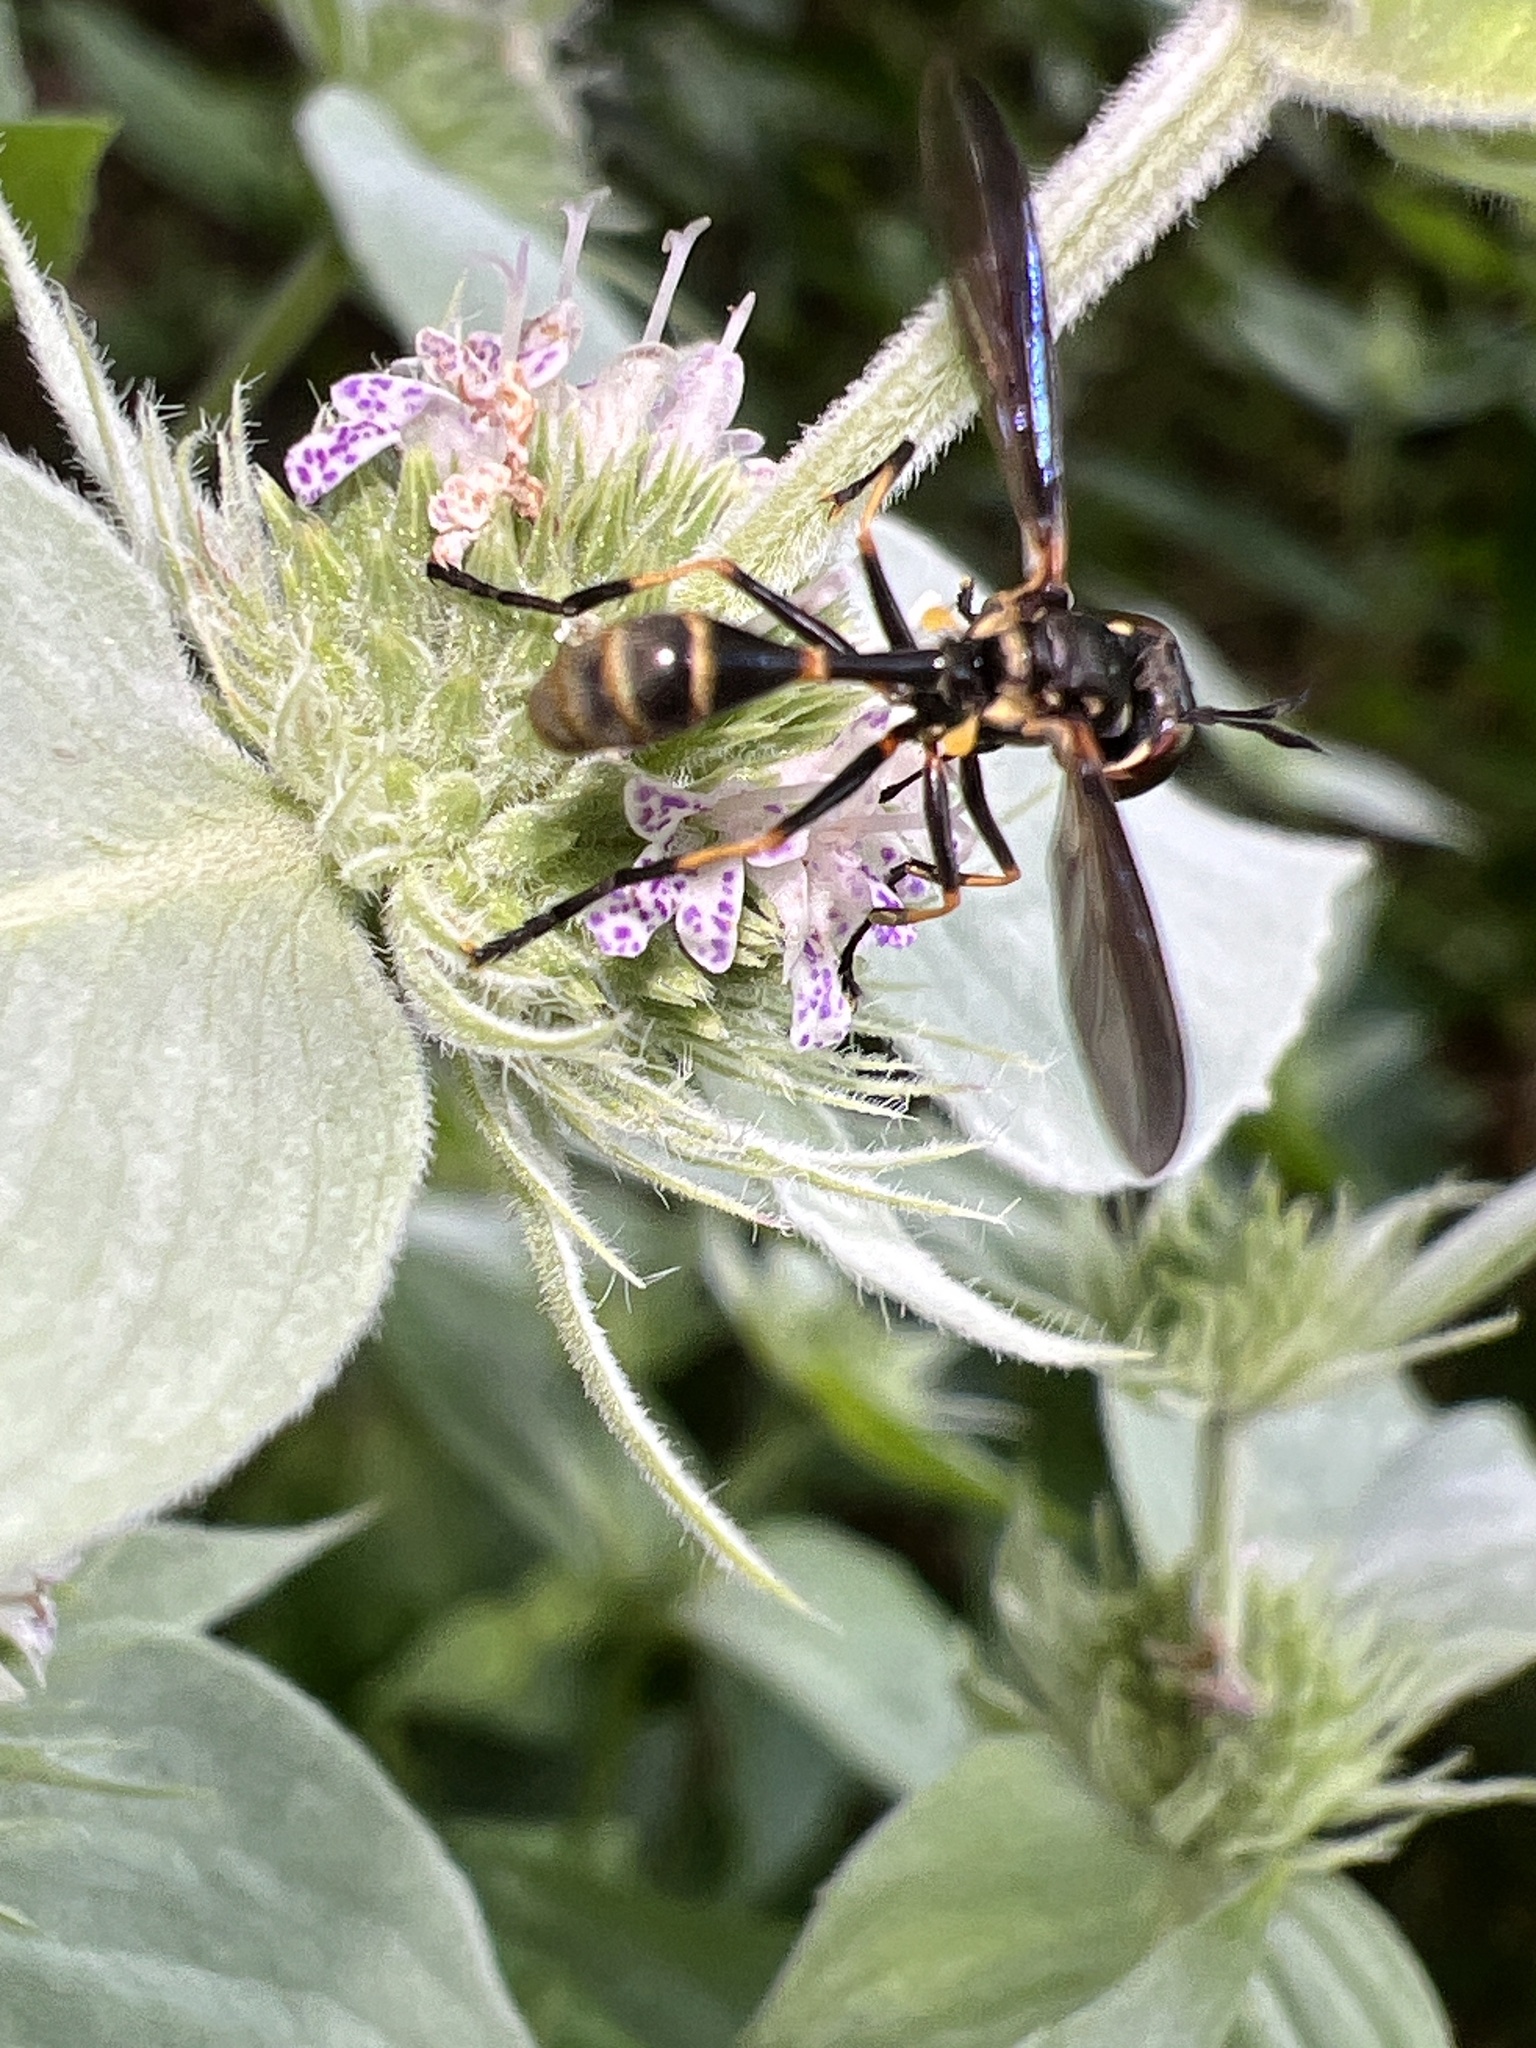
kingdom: Animalia
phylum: Arthropoda
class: Insecta
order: Diptera
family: Conopidae
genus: Physoconops
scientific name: Physoconops obscuripennis
